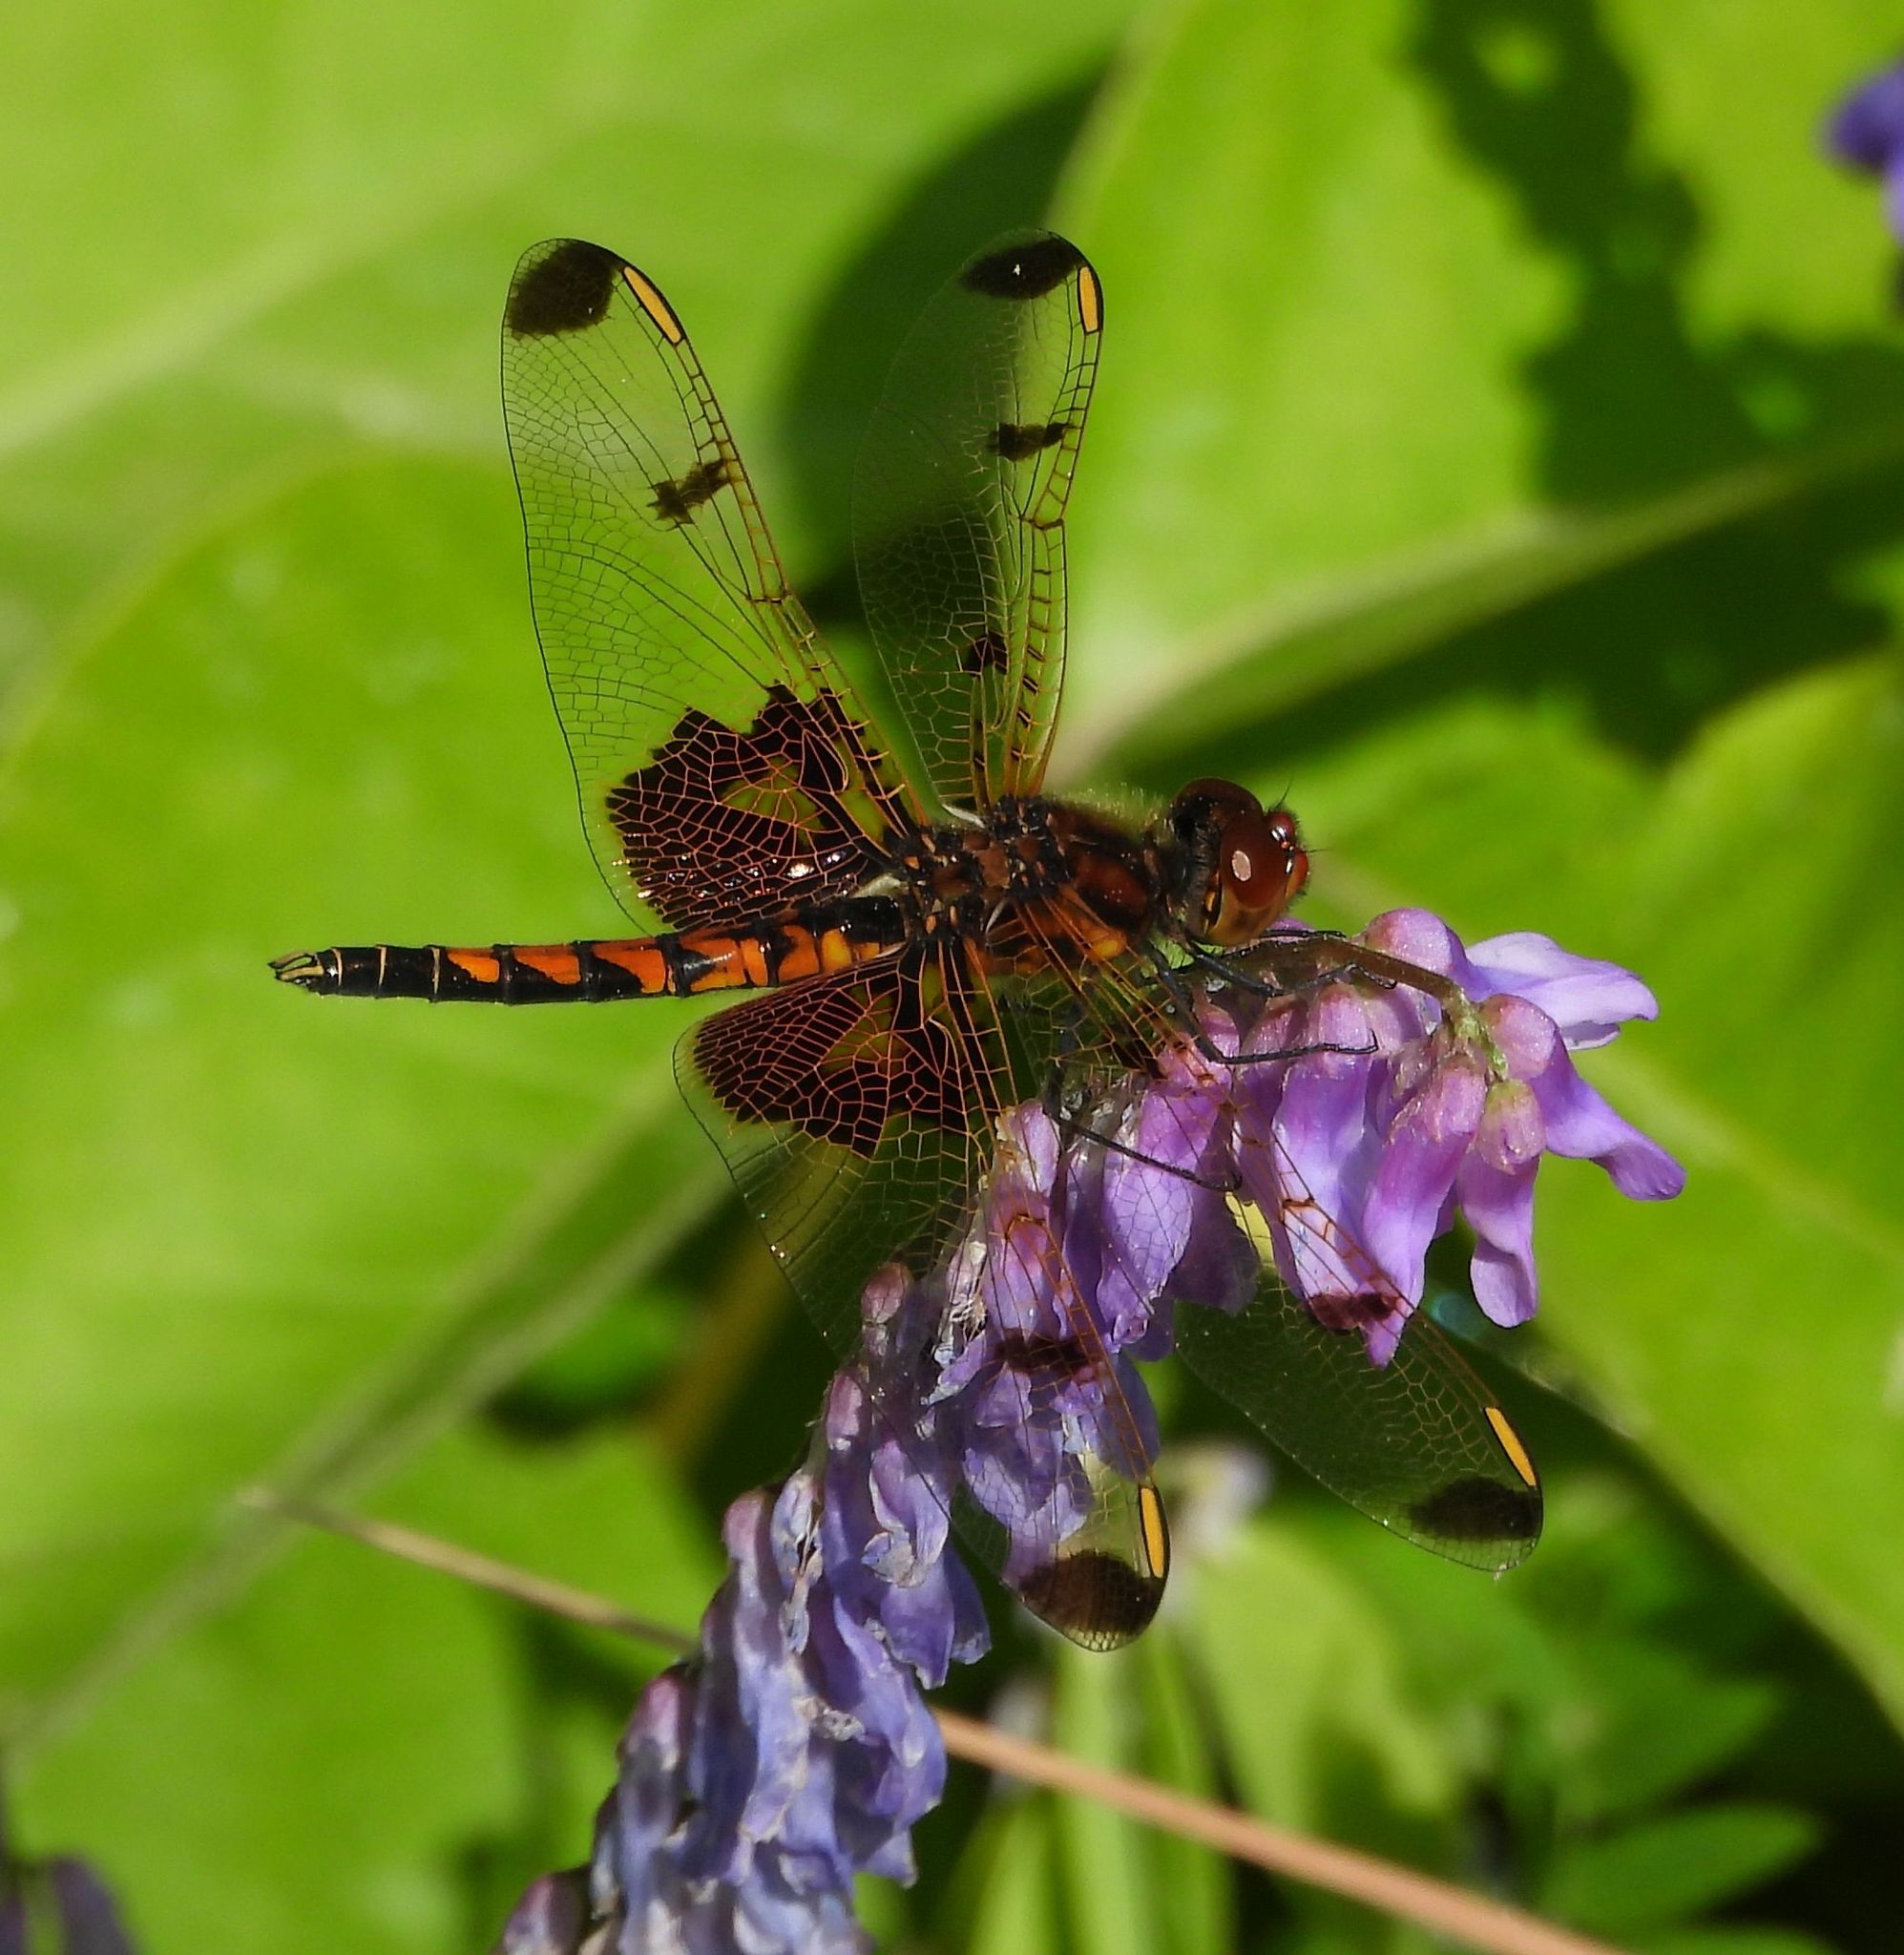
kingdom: Animalia
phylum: Arthropoda
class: Insecta
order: Odonata
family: Libellulidae
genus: Celithemis
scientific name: Celithemis elisa
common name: Calico pennant
